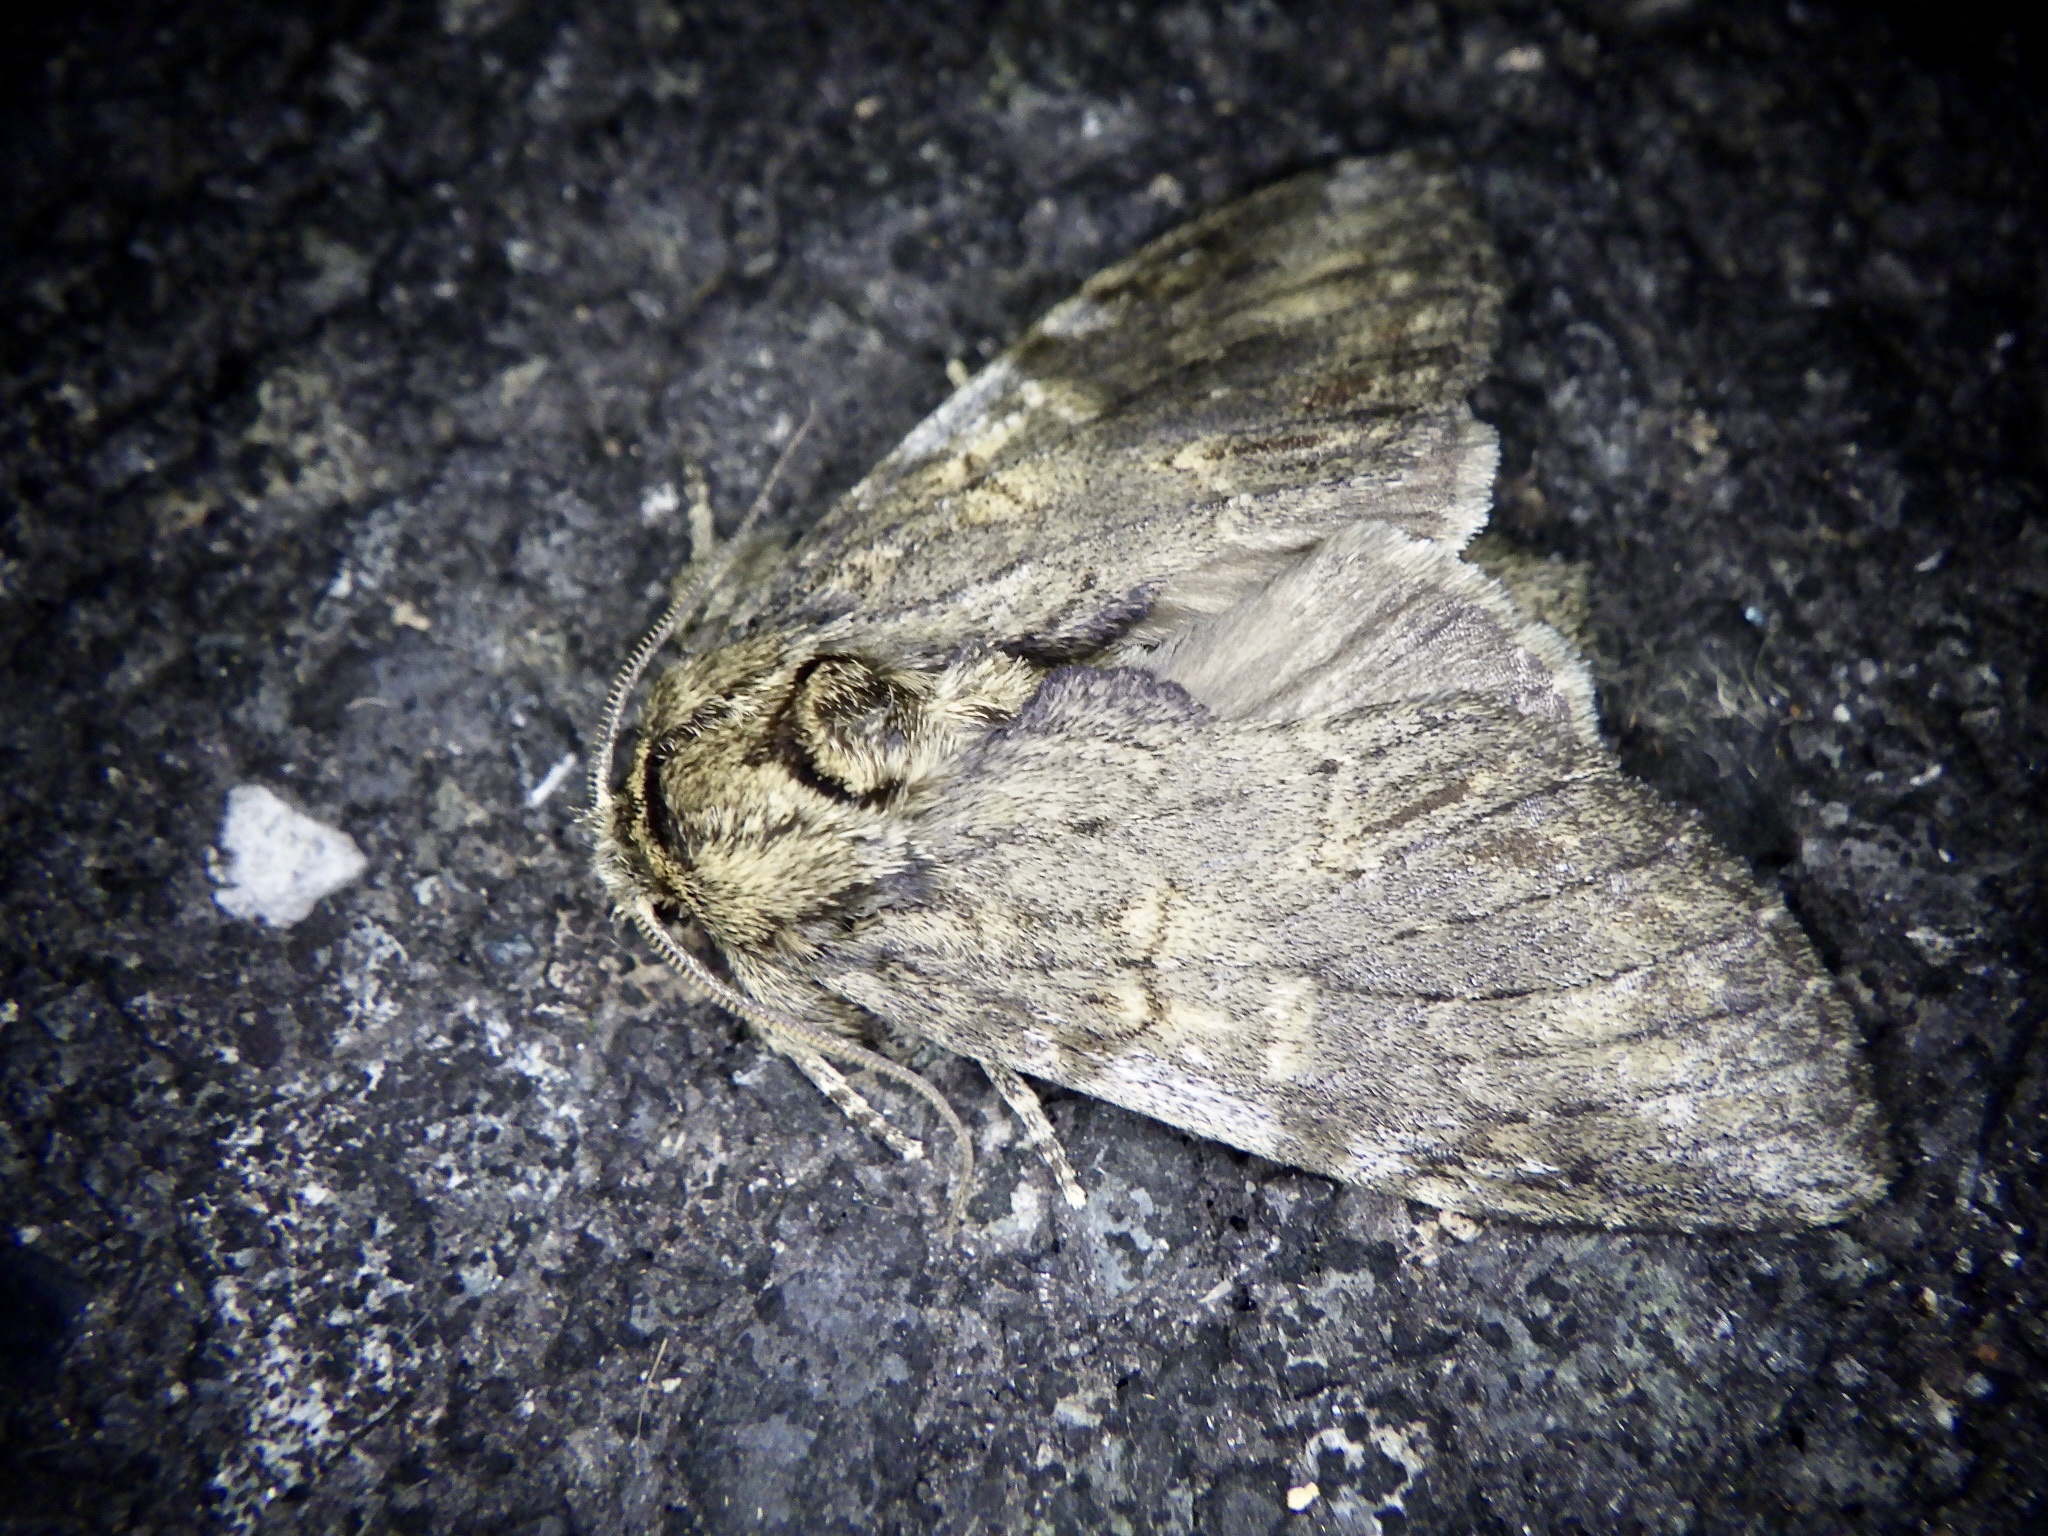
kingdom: Animalia
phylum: Arthropoda
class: Insecta
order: Lepidoptera
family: Notodontidae
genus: Peridea
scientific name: Peridea gigantea
